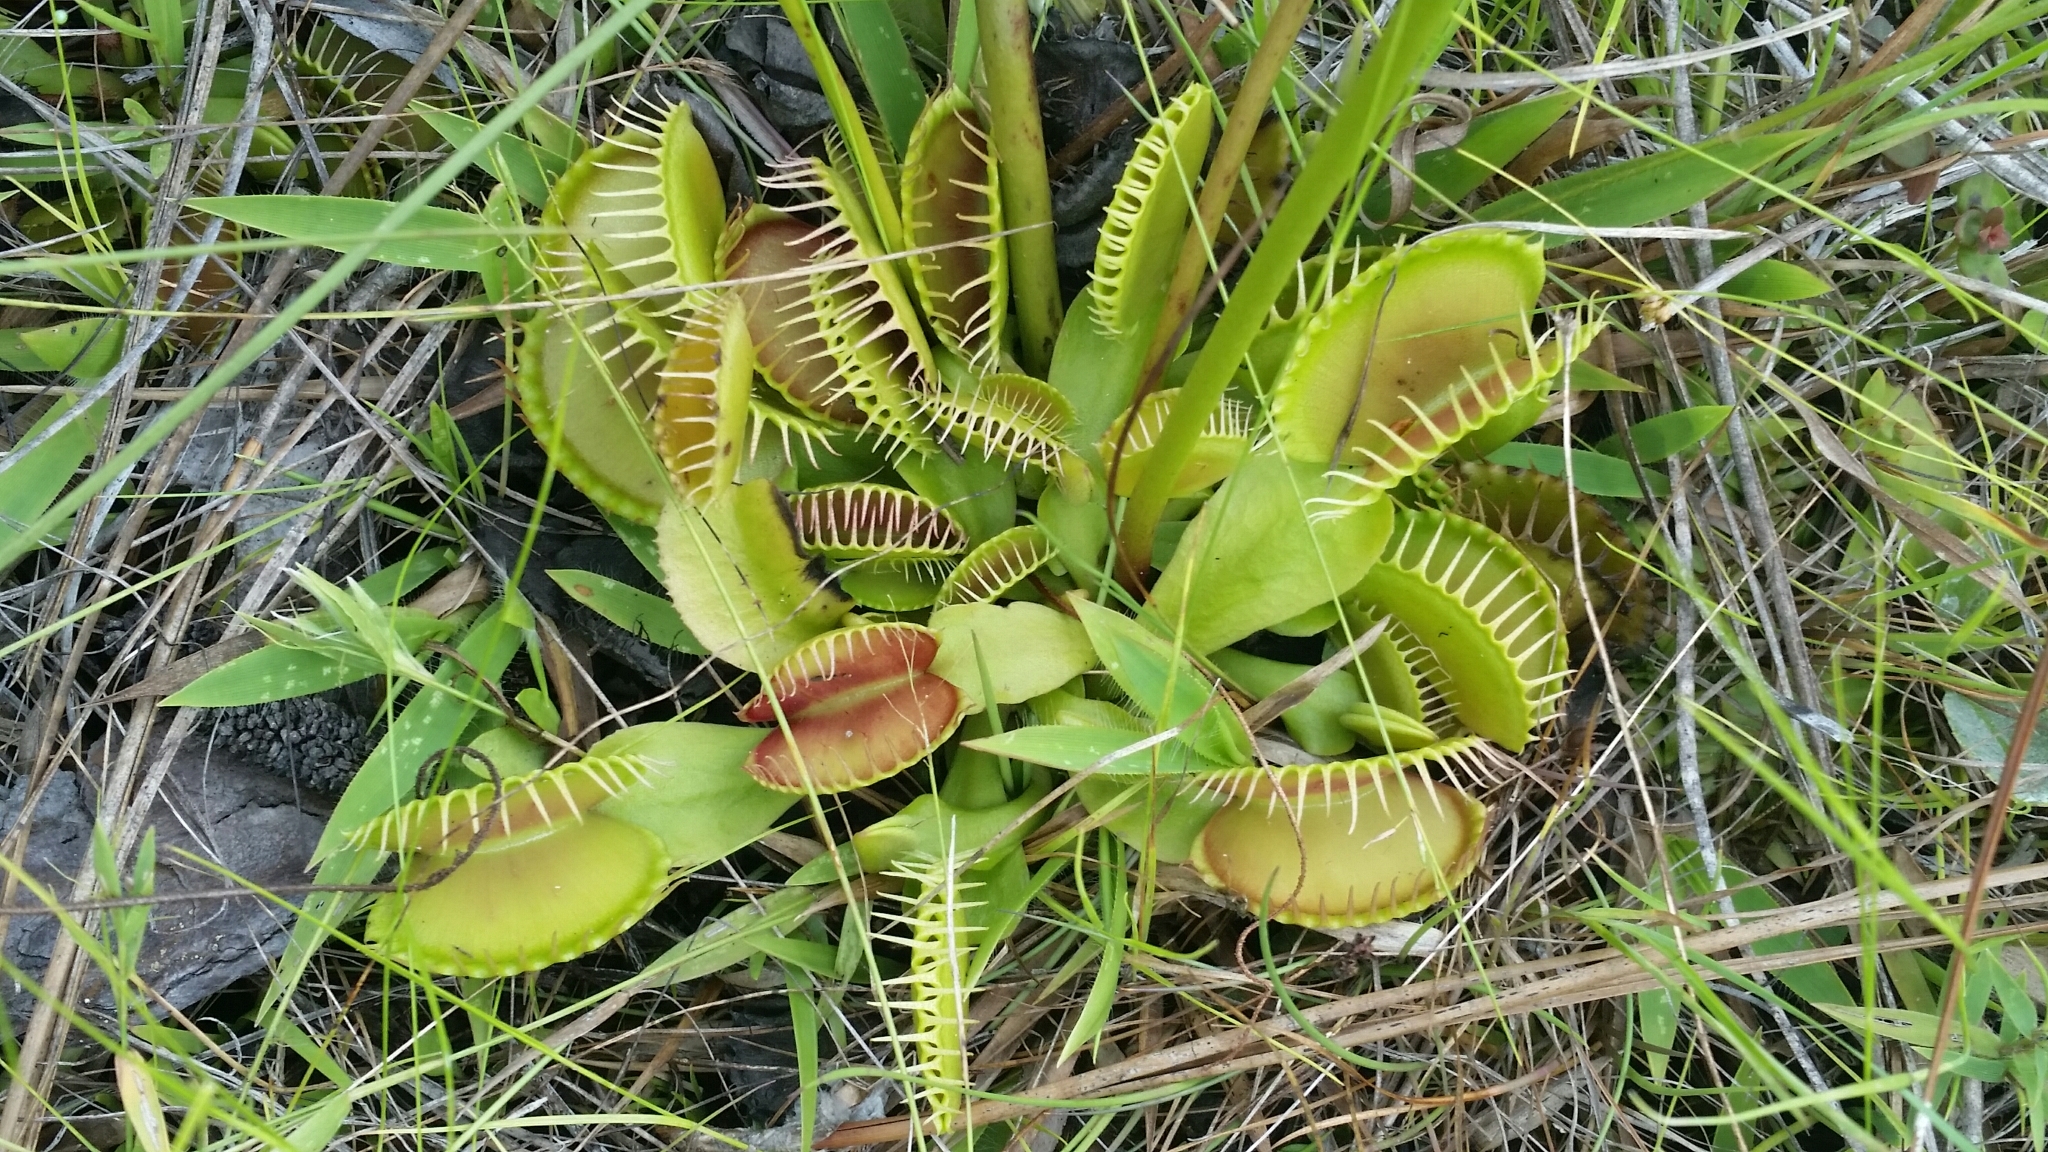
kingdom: Plantae
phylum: Tracheophyta
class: Magnoliopsida
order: Caryophyllales
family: Droseraceae
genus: Dionaea
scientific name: Dionaea muscipula
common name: Venus flytrap
